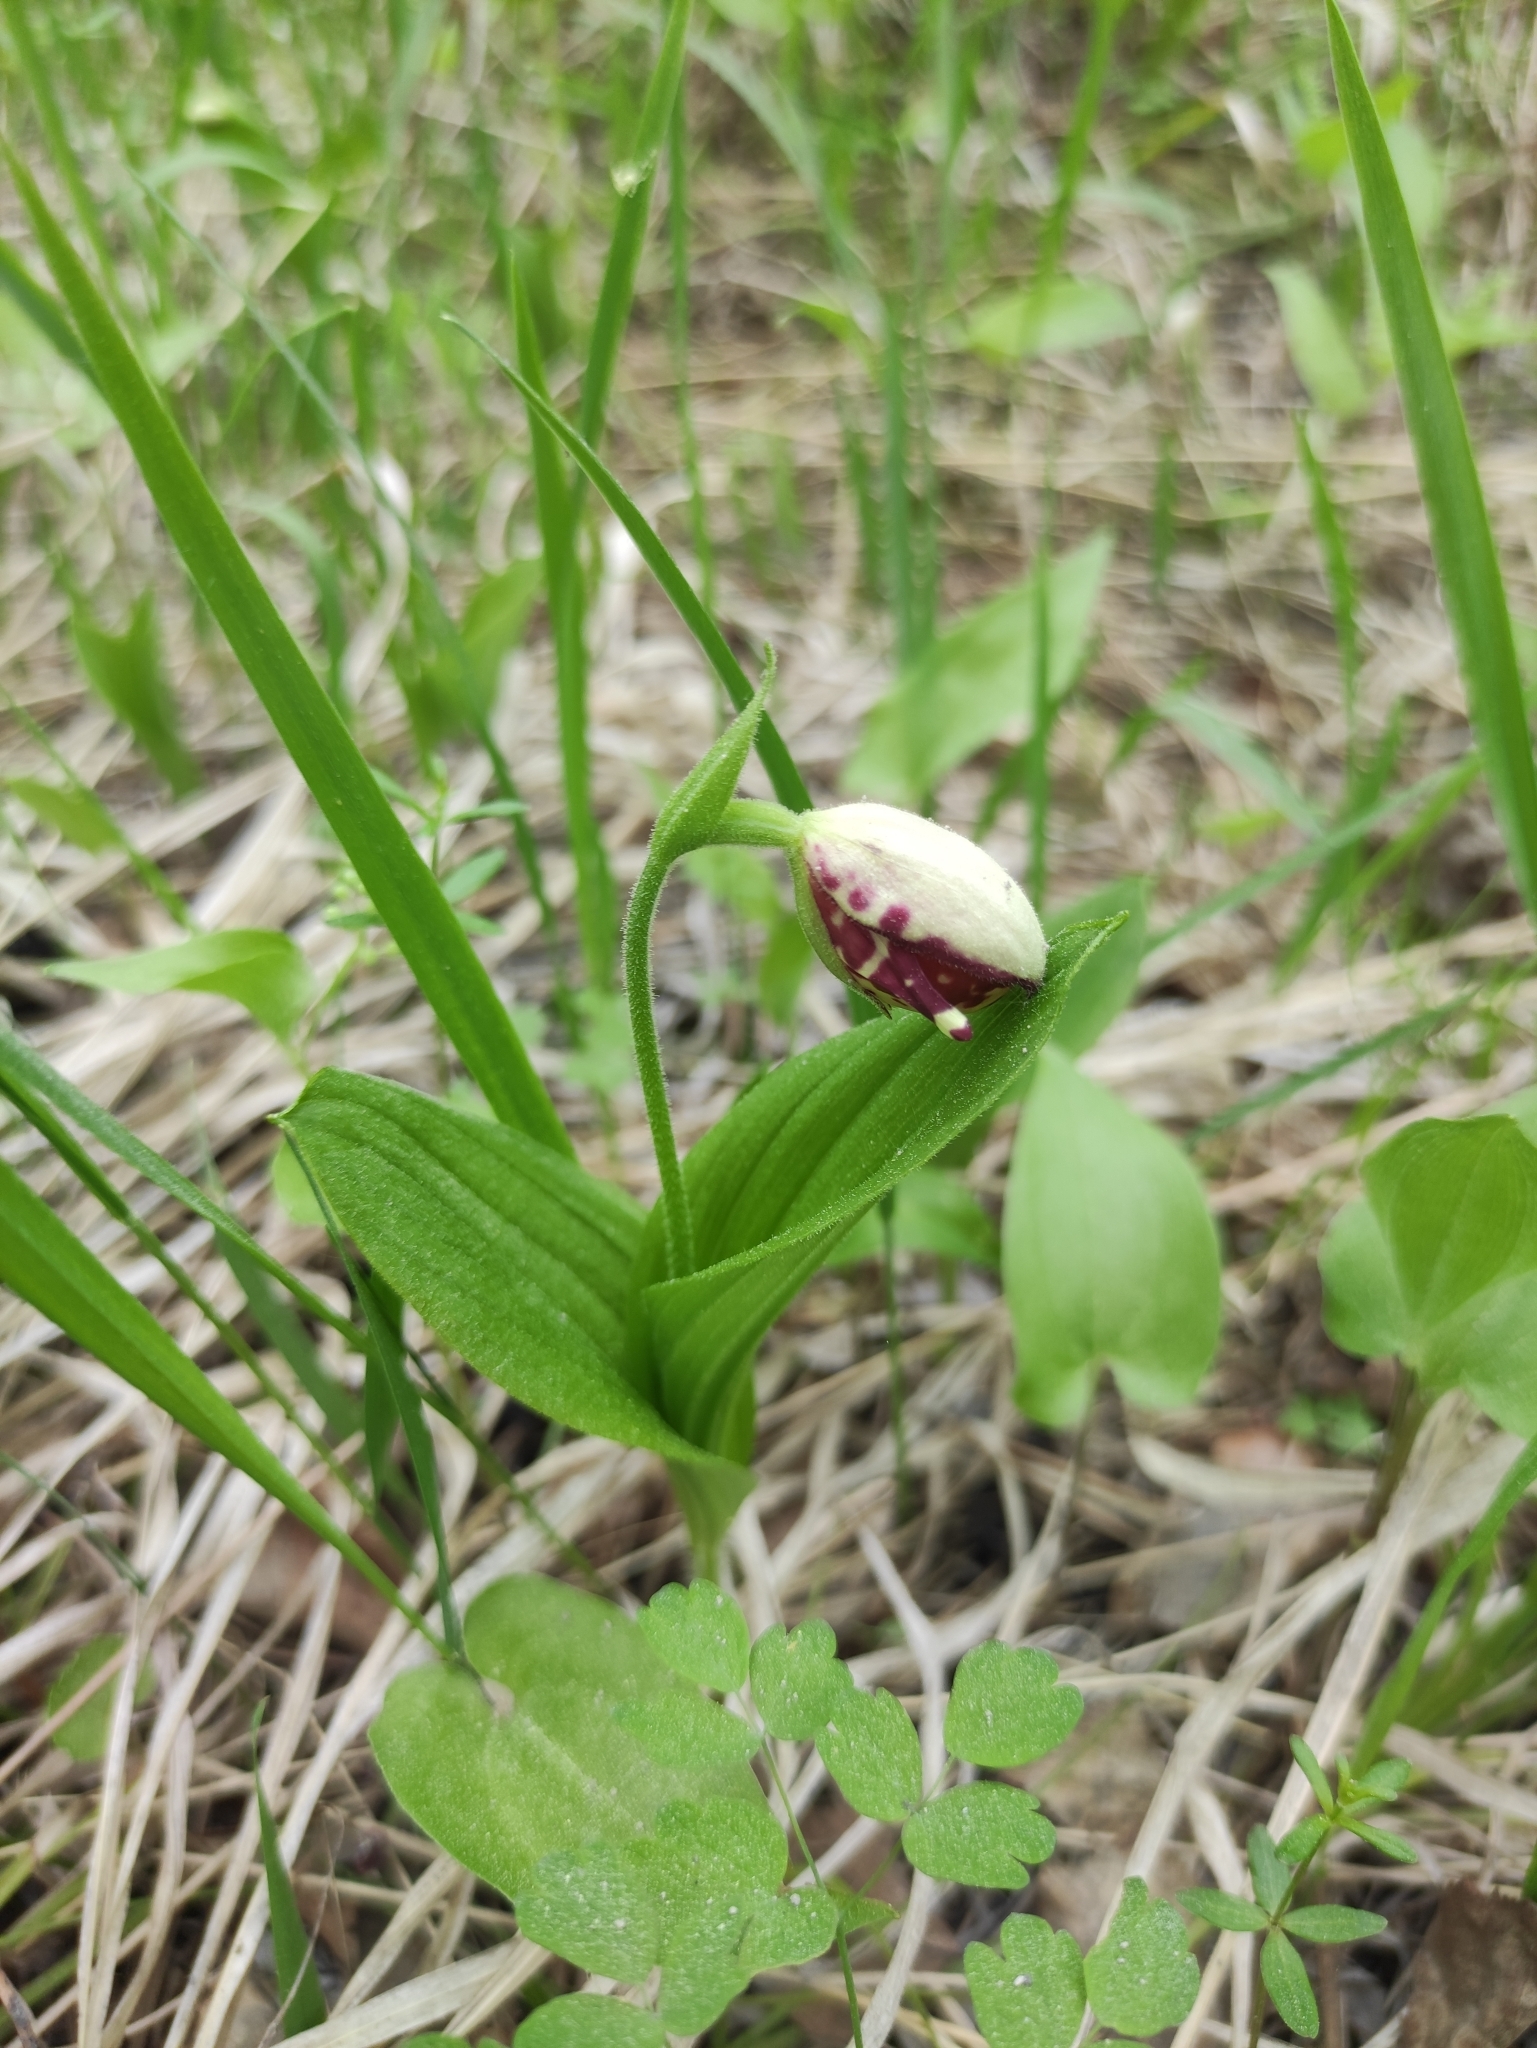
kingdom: Plantae
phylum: Tracheophyta
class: Liliopsida
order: Asparagales
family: Orchidaceae
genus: Cypripedium
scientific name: Cypripedium guttatum
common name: Pink lady slipper
